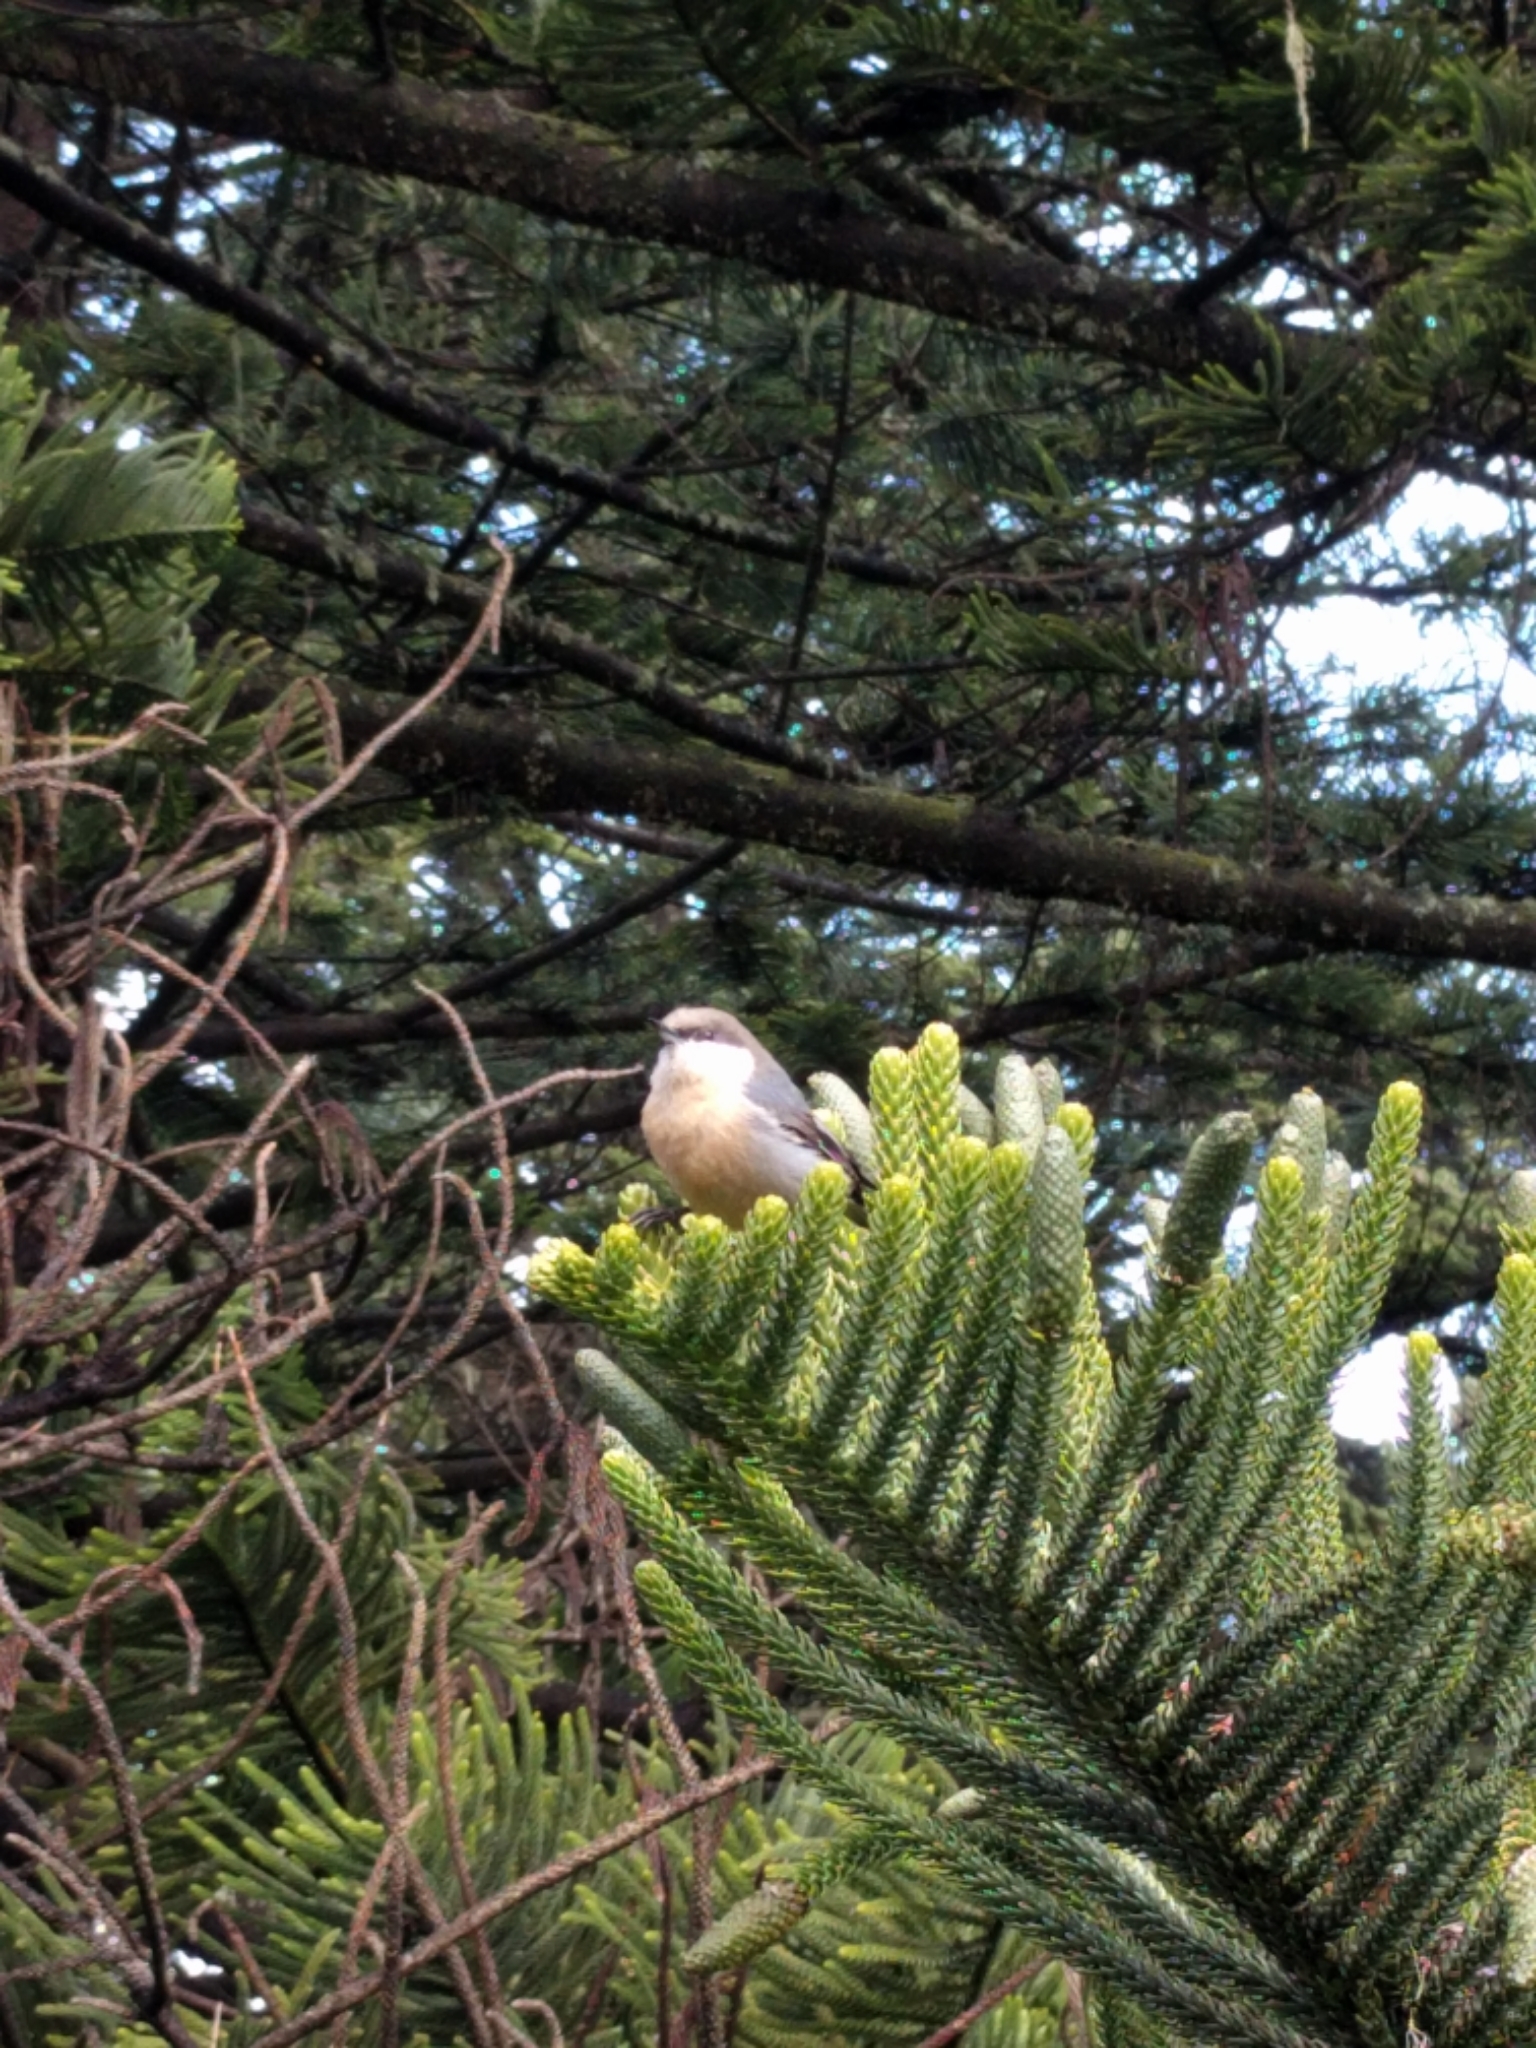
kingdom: Animalia
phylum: Chordata
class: Aves
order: Passeriformes
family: Sittidae
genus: Sitta
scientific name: Sitta pygmaea
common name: Pygmy nuthatch
